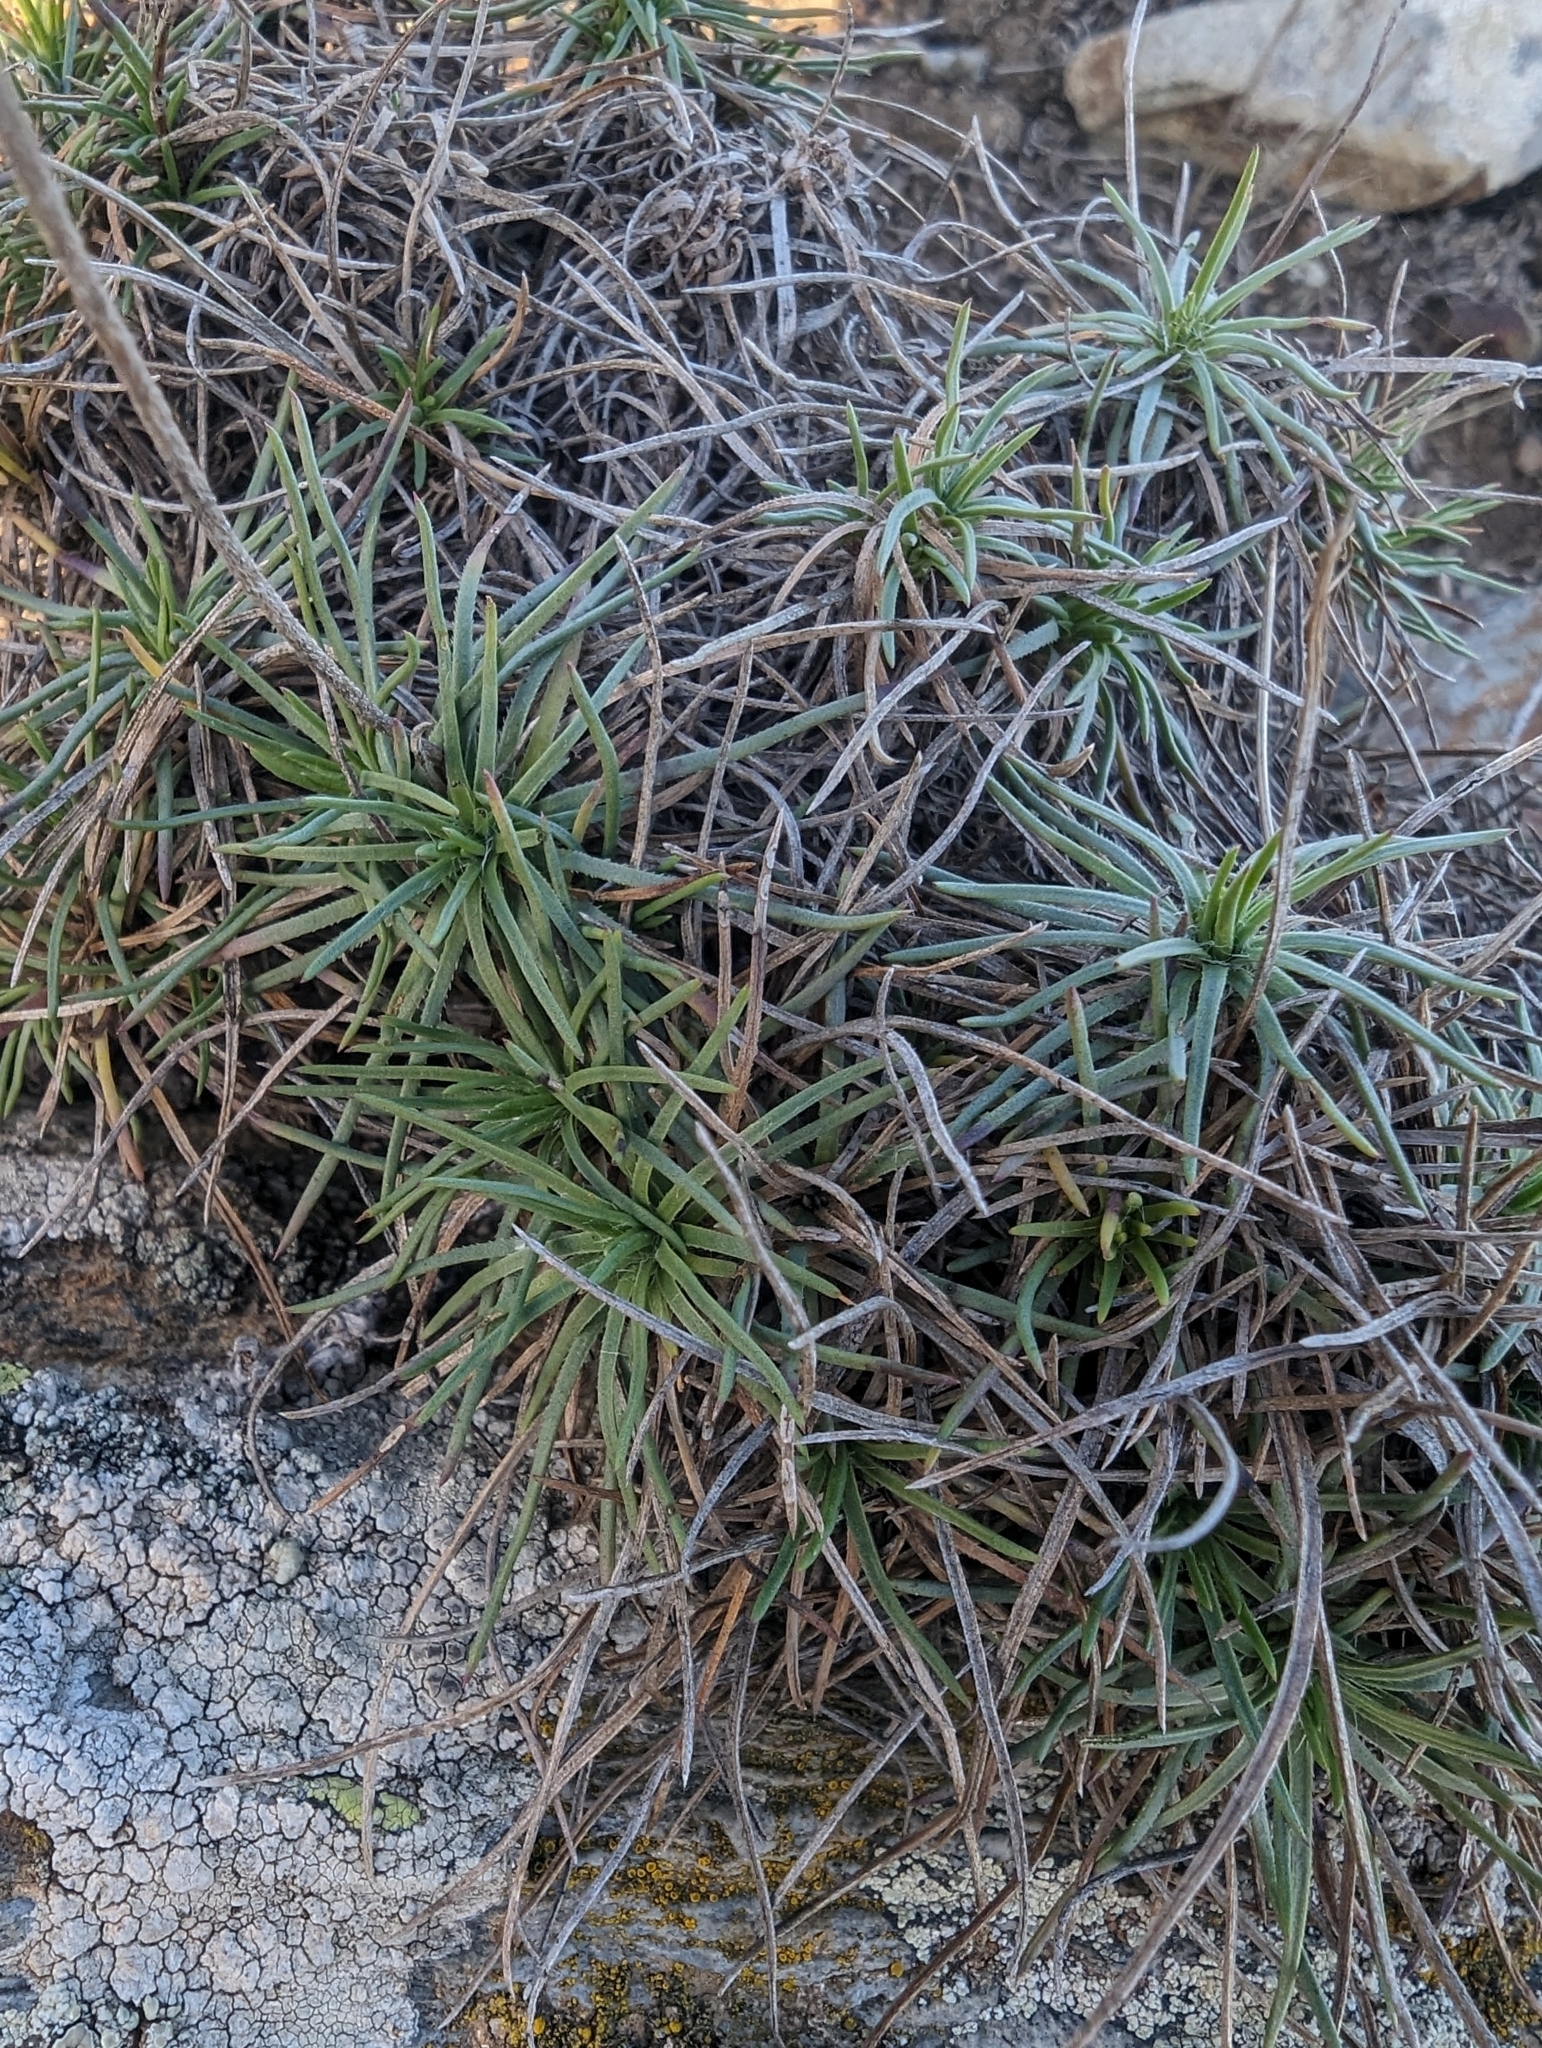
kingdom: Plantae
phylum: Tracheophyta
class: Magnoliopsida
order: Lamiales
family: Plantaginaceae
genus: Plantago
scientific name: Plantago subulata
